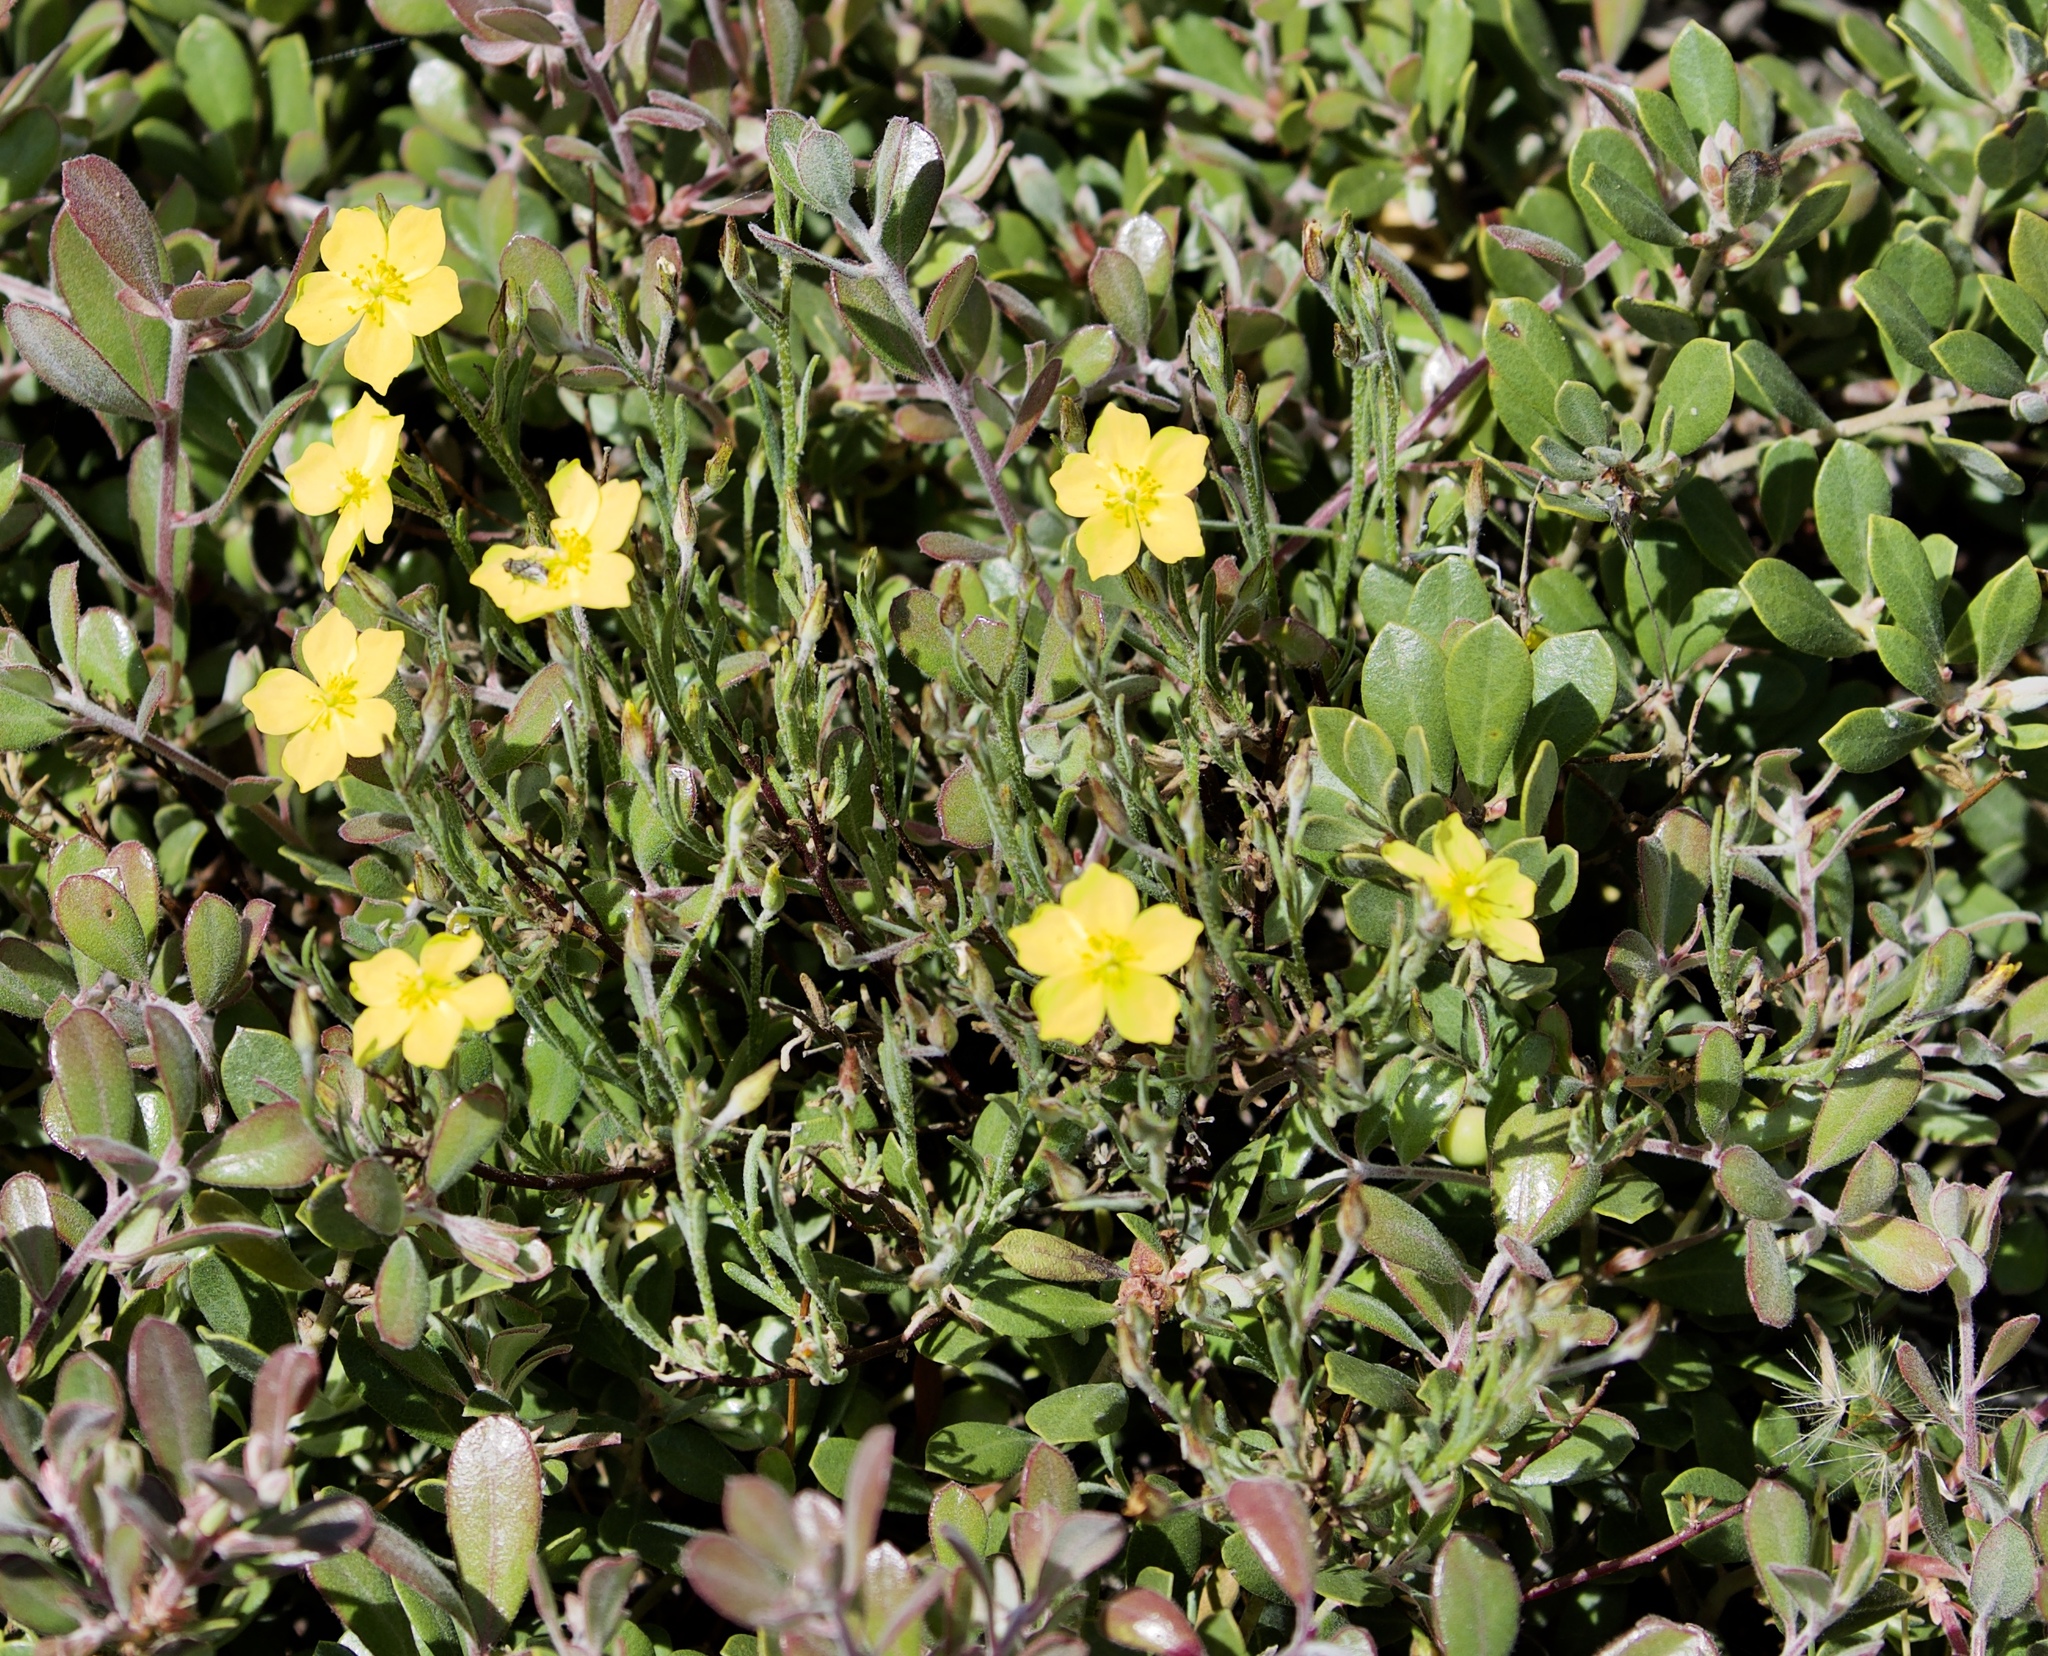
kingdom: Plantae
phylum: Tracheophyta
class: Magnoliopsida
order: Malvales
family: Cistaceae
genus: Crocanthemum
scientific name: Crocanthemum scoparium
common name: Broom-rose
